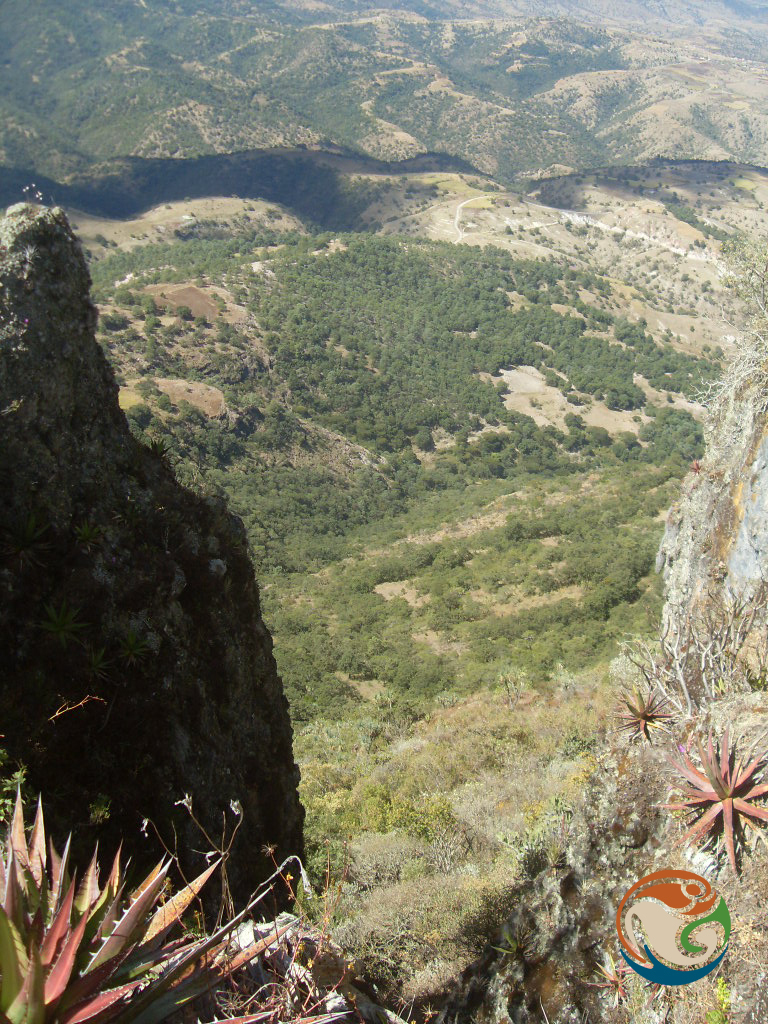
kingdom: Plantae
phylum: Tracheophyta
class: Liliopsida
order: Asparagales
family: Asparagaceae
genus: Agave
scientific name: Agave convallis
